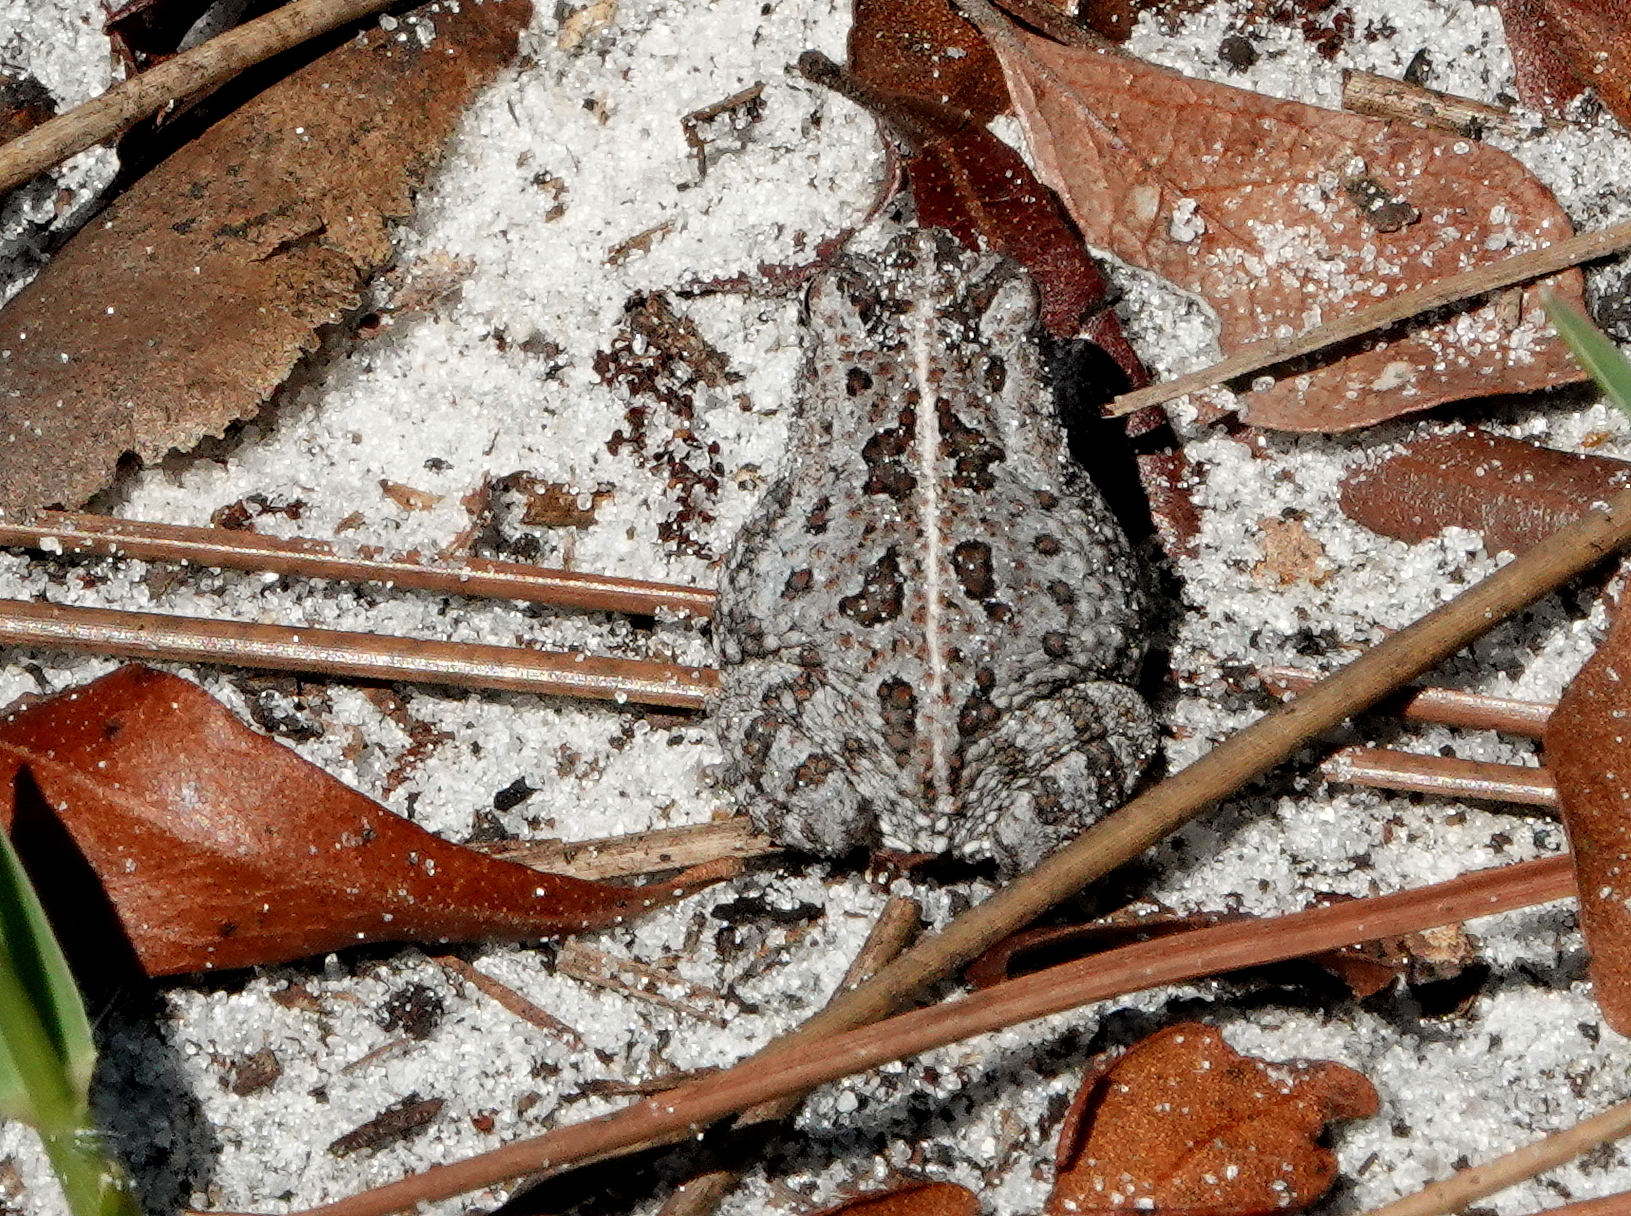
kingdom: Animalia
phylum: Chordata
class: Amphibia
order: Anura
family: Bufonidae
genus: Anaxyrus
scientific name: Anaxyrus quercicus
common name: Oak toad
